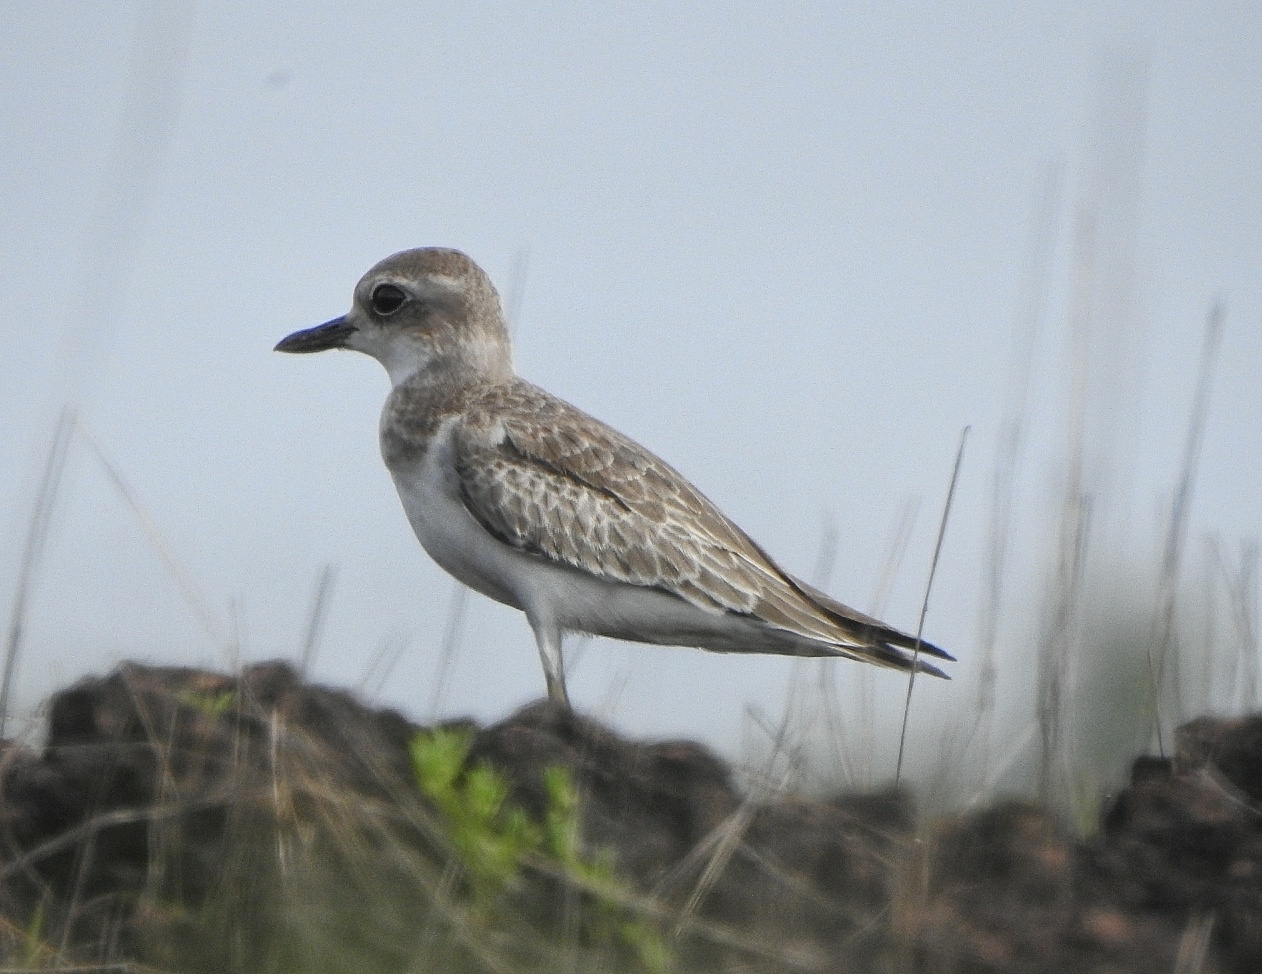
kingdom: Animalia
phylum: Chordata
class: Aves
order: Charadriiformes
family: Charadriidae
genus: Charadrius
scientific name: Charadrius leschenaultii
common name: Greater sand plover
